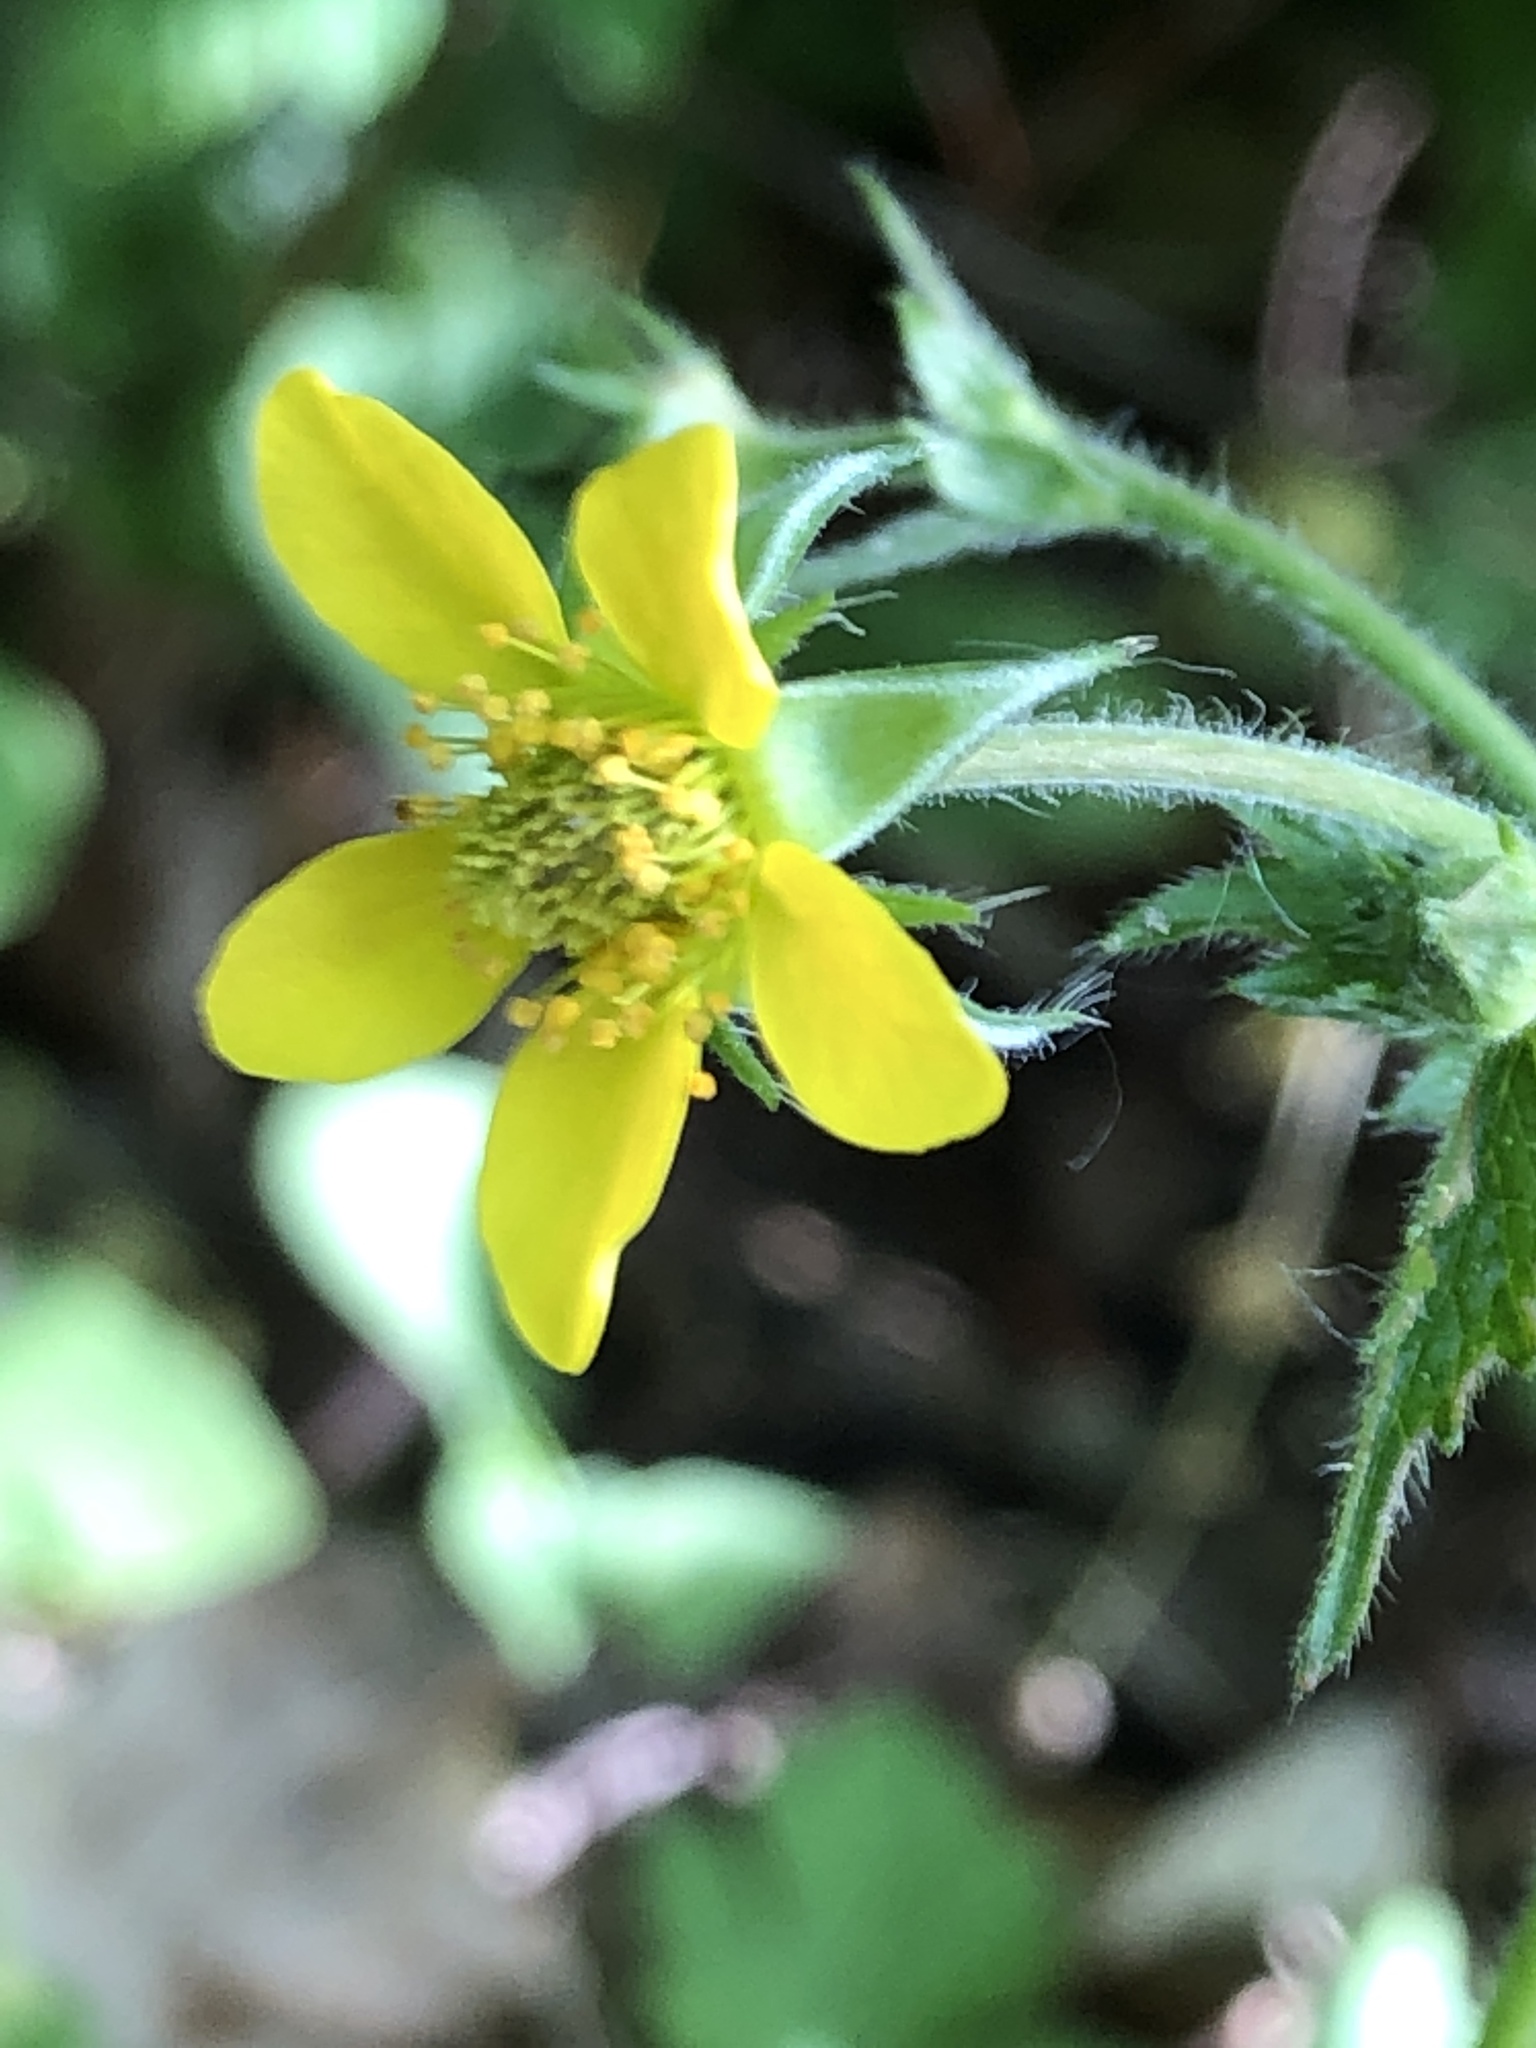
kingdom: Plantae
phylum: Tracheophyta
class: Magnoliopsida
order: Rosales
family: Rosaceae
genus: Geum
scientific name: Geum urbanum
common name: Wood avens
